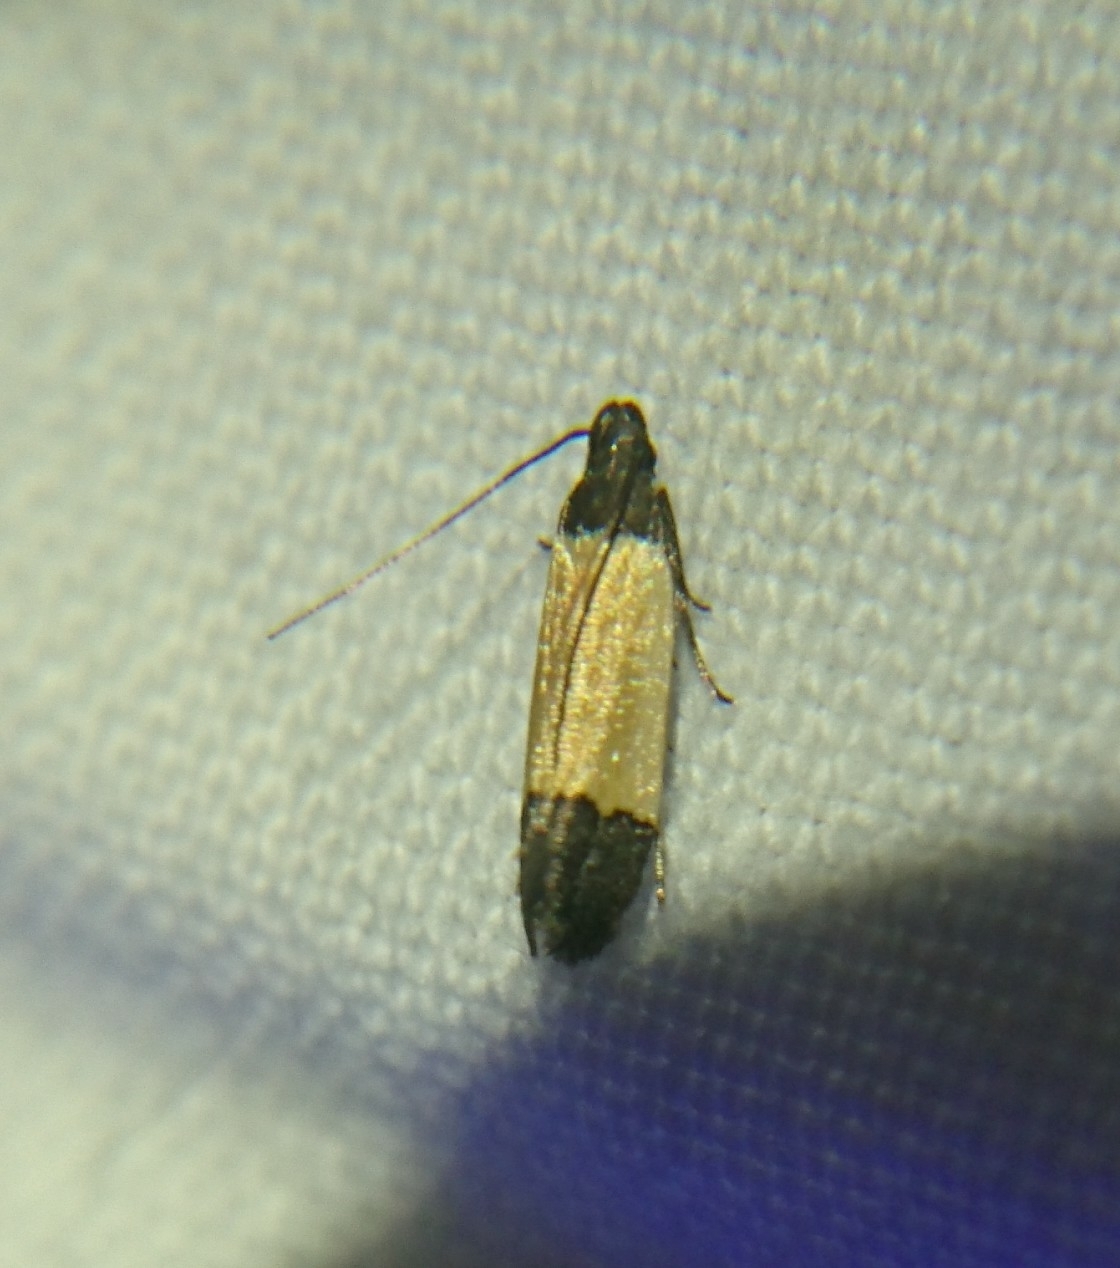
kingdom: Animalia
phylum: Arthropoda
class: Insecta
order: Lepidoptera
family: Gelechiidae
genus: Anacampsis
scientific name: Anacampsis coverdalella
